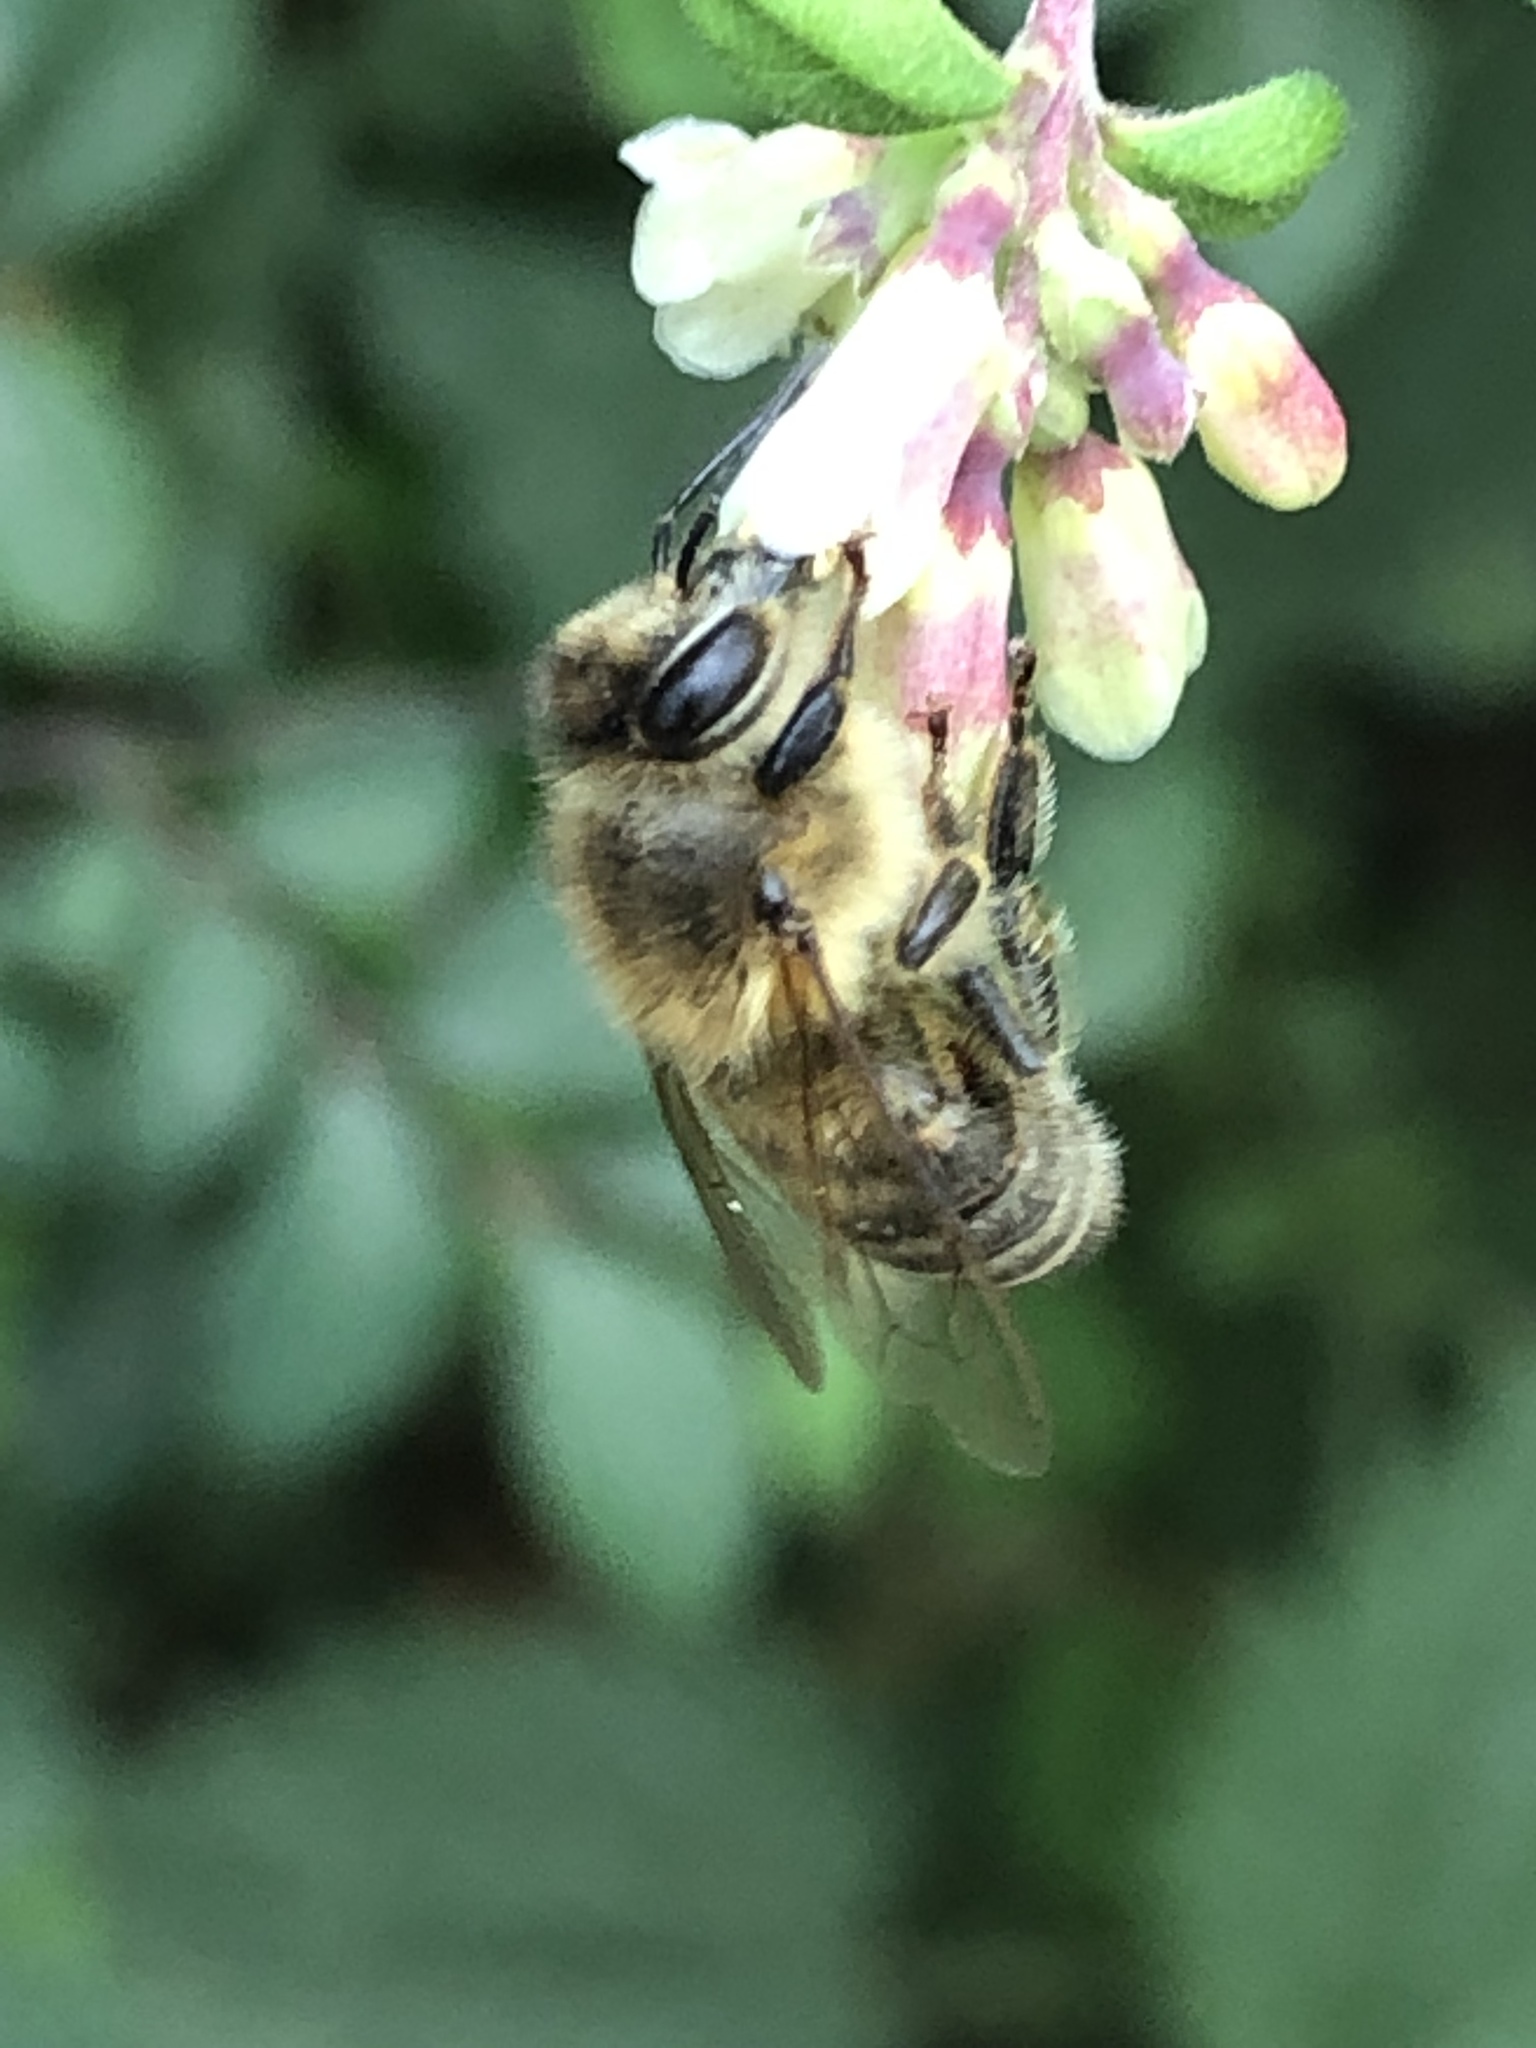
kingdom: Animalia
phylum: Arthropoda
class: Insecta
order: Hymenoptera
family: Apidae
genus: Apis
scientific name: Apis mellifera
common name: Honey bee
